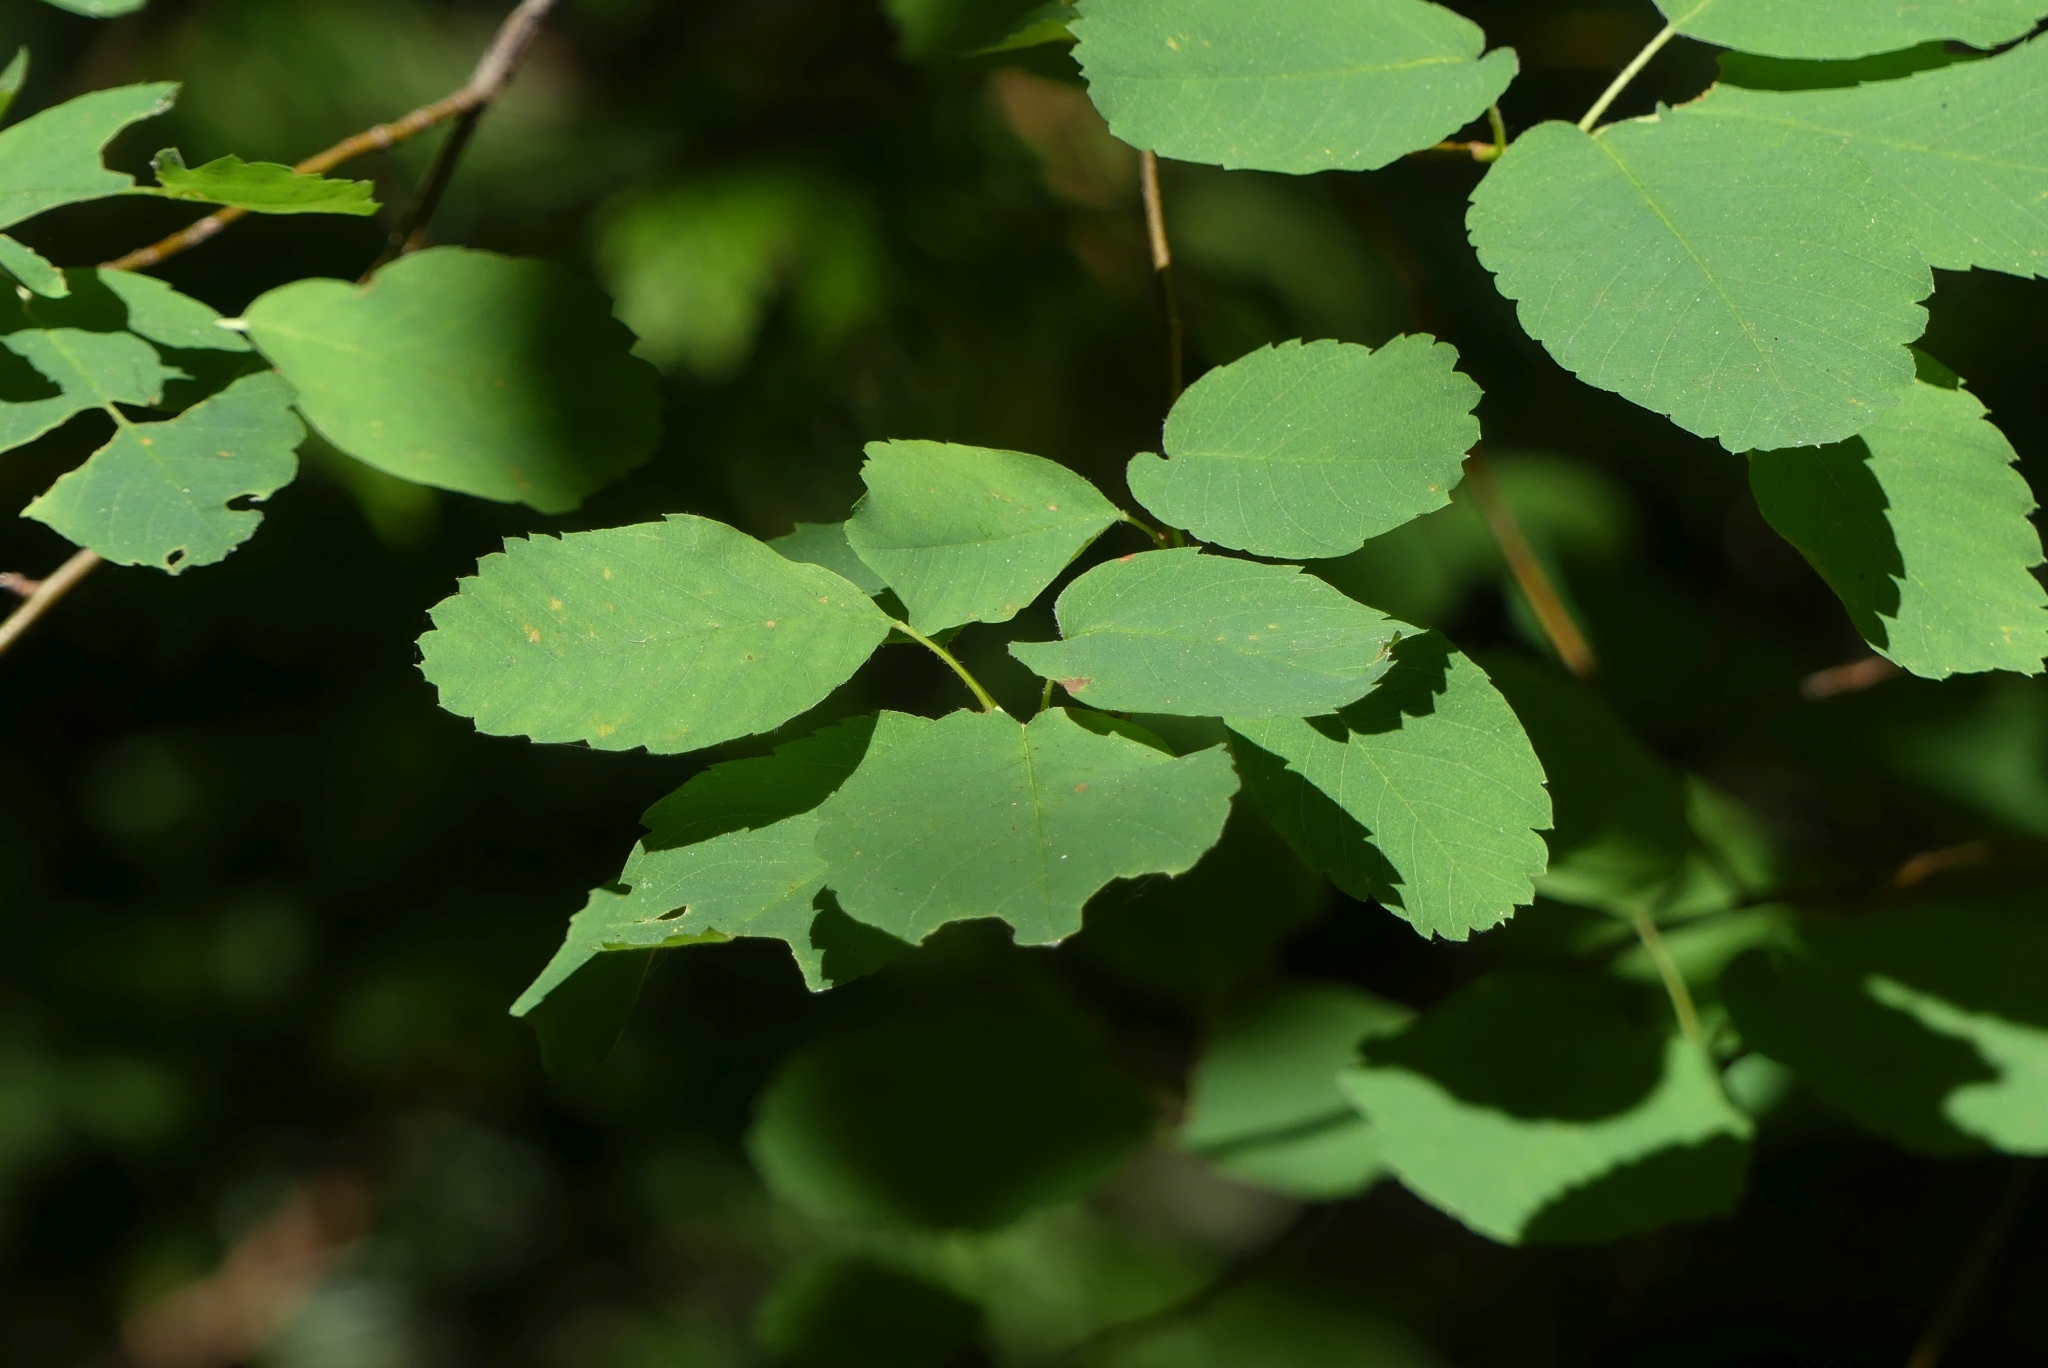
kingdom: Plantae
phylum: Tracheophyta
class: Magnoliopsida
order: Rosales
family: Rosaceae
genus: Amelanchier
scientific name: Amelanchier alnifolia
